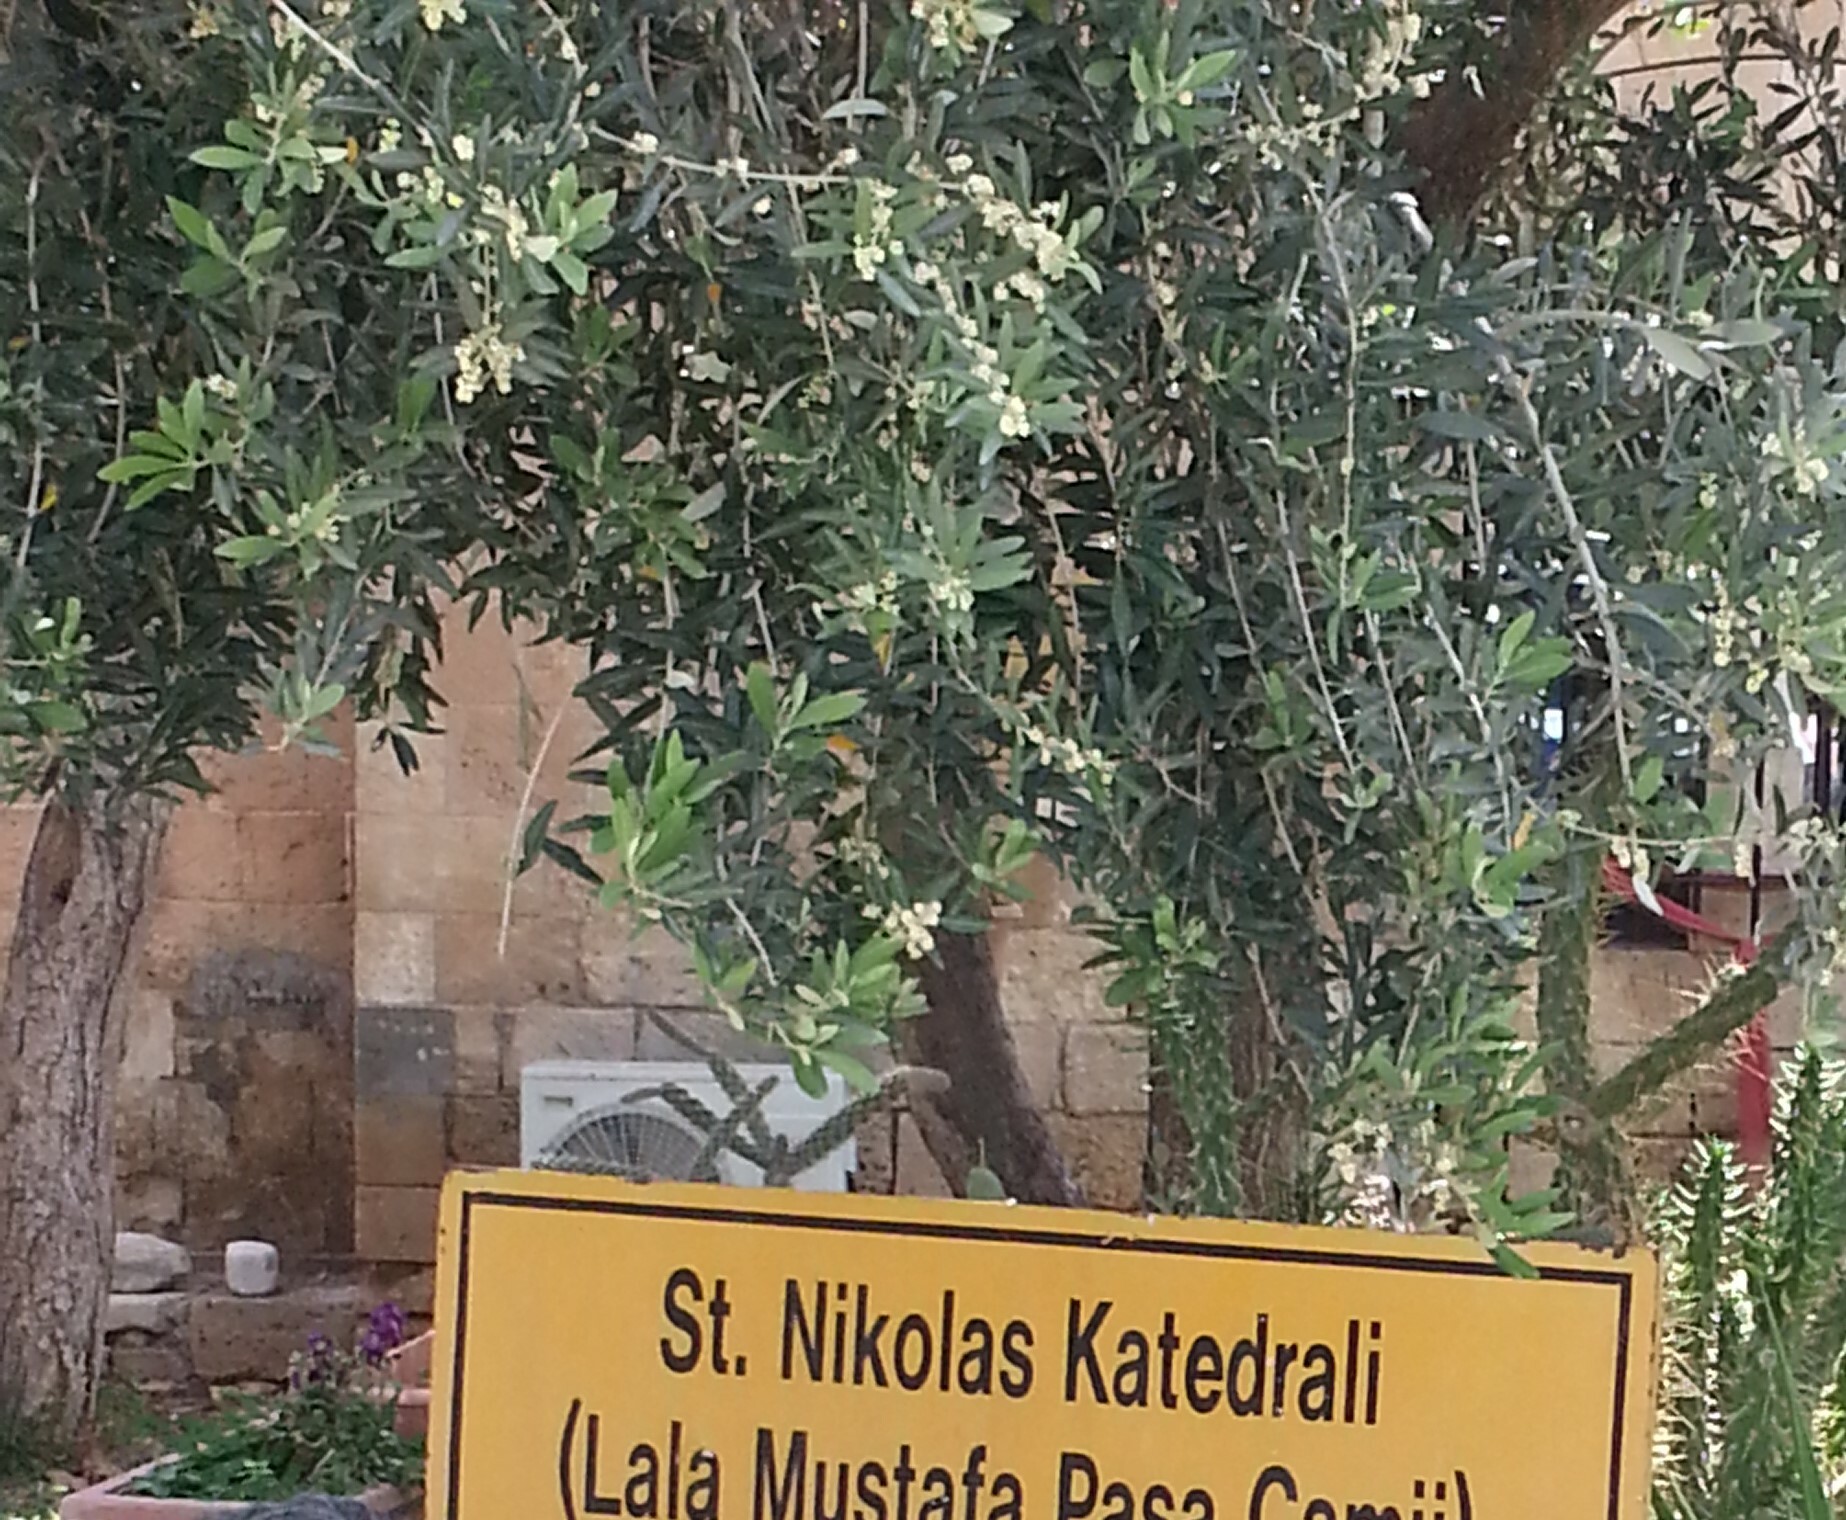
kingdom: Plantae
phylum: Tracheophyta
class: Magnoliopsida
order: Lamiales
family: Oleaceae
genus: Olea
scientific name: Olea europaea
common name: Olive
